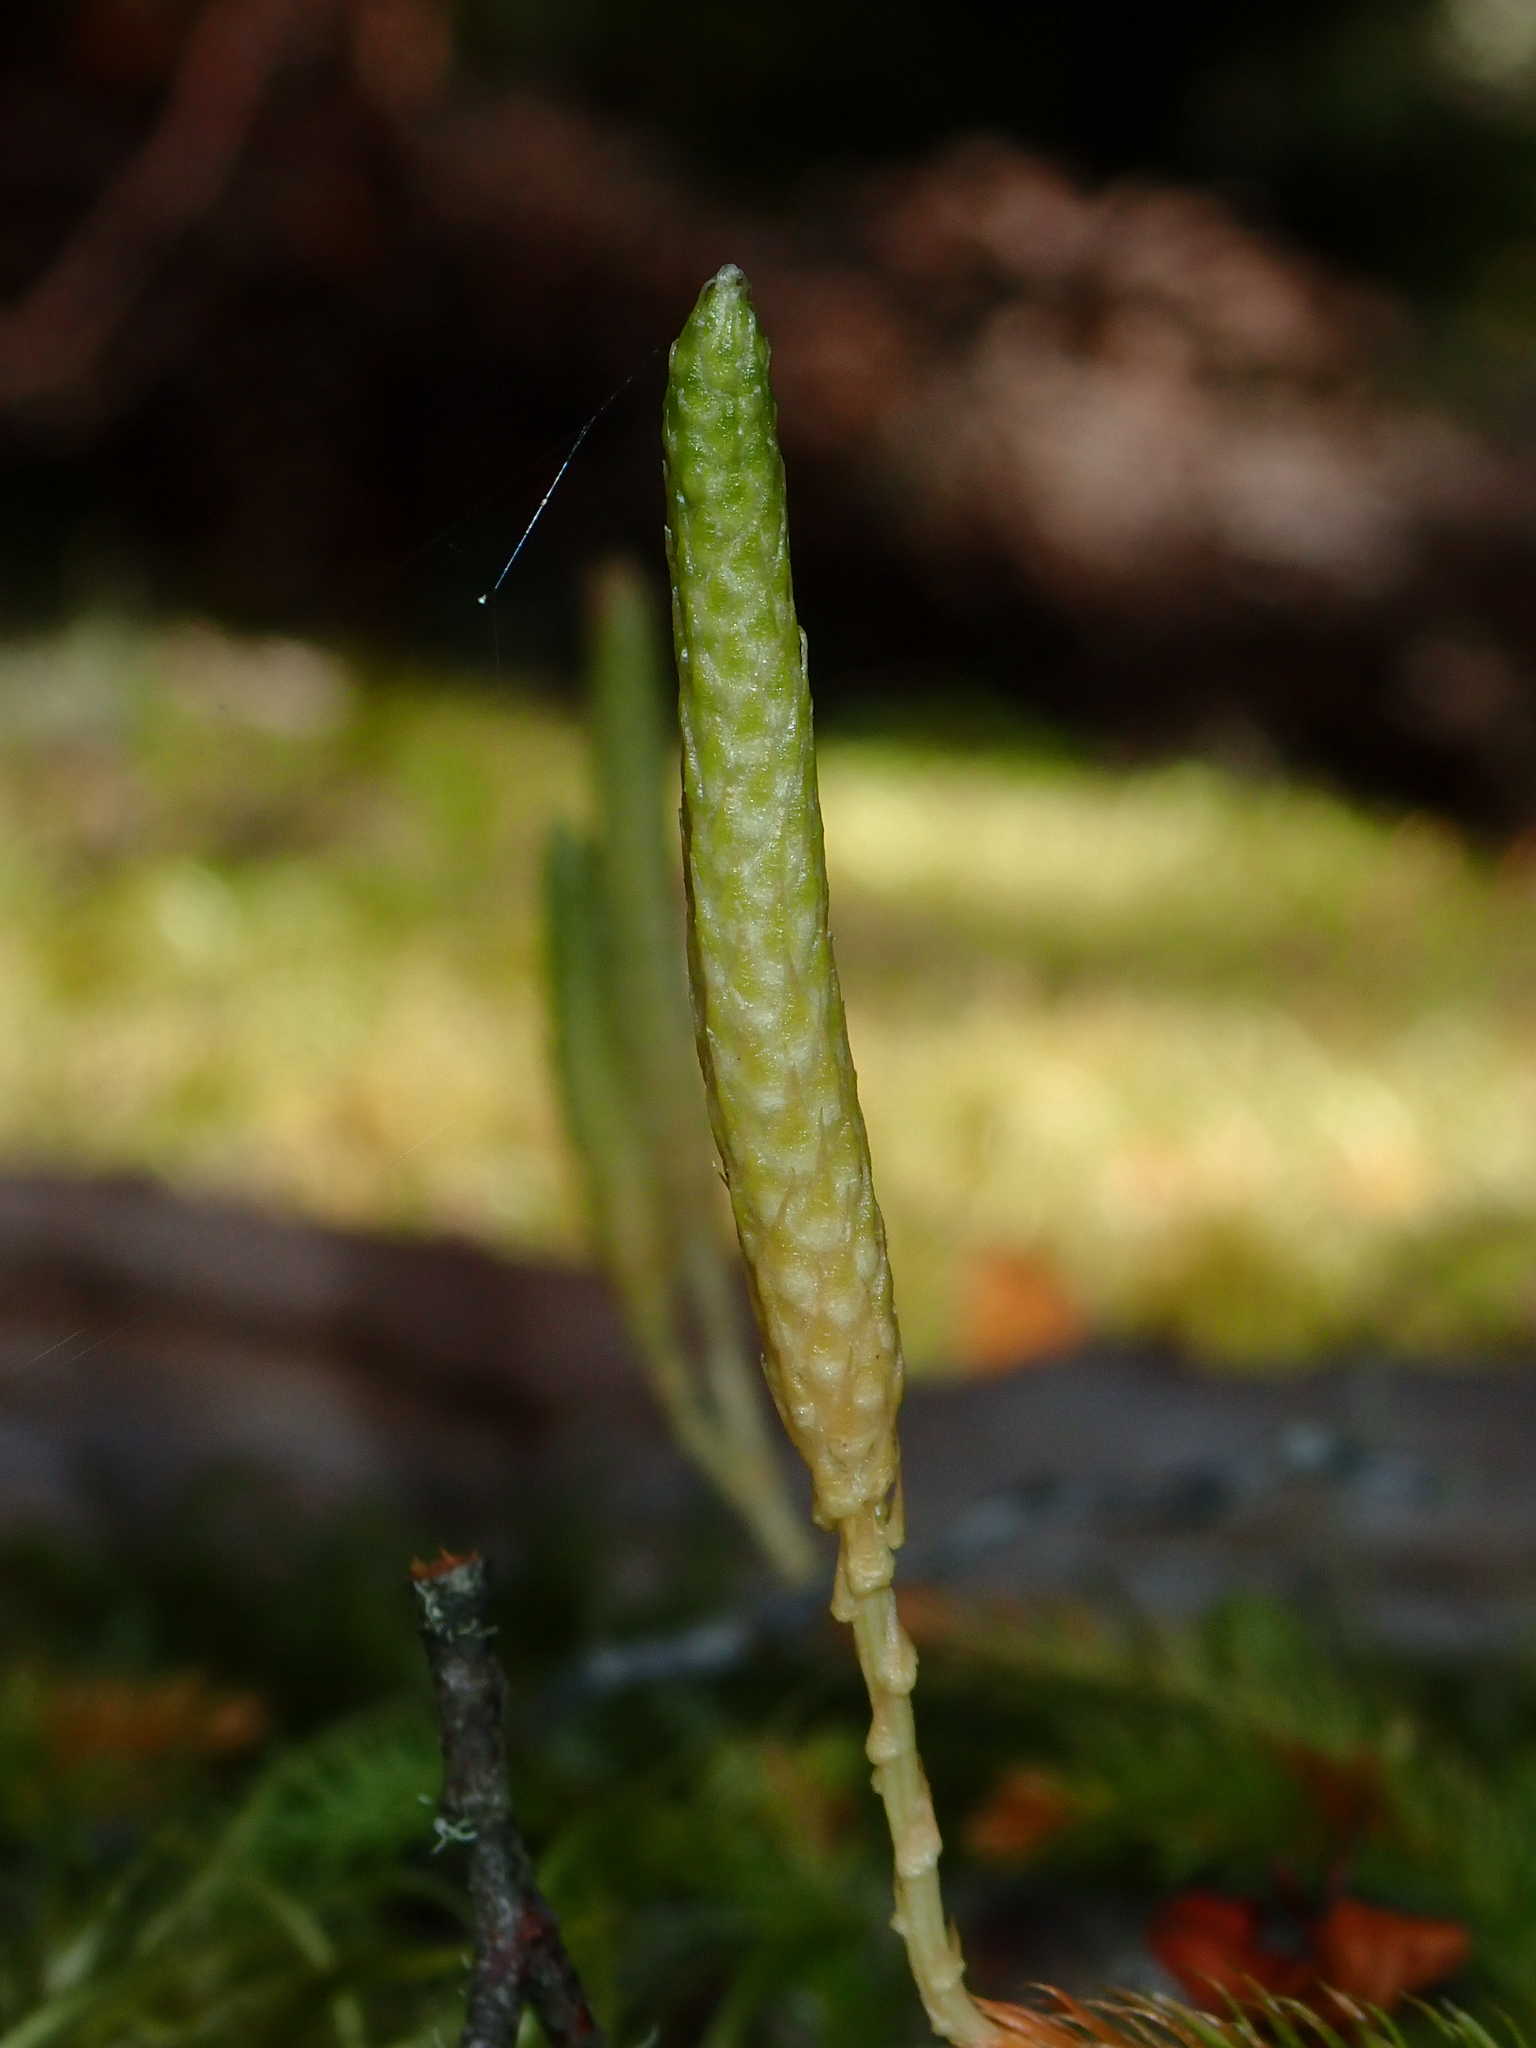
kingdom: Plantae
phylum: Tracheophyta
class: Lycopodiopsida
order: Lycopodiales
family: Lycopodiaceae
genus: Austrolycopodium
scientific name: Austrolycopodium fastigiatum
